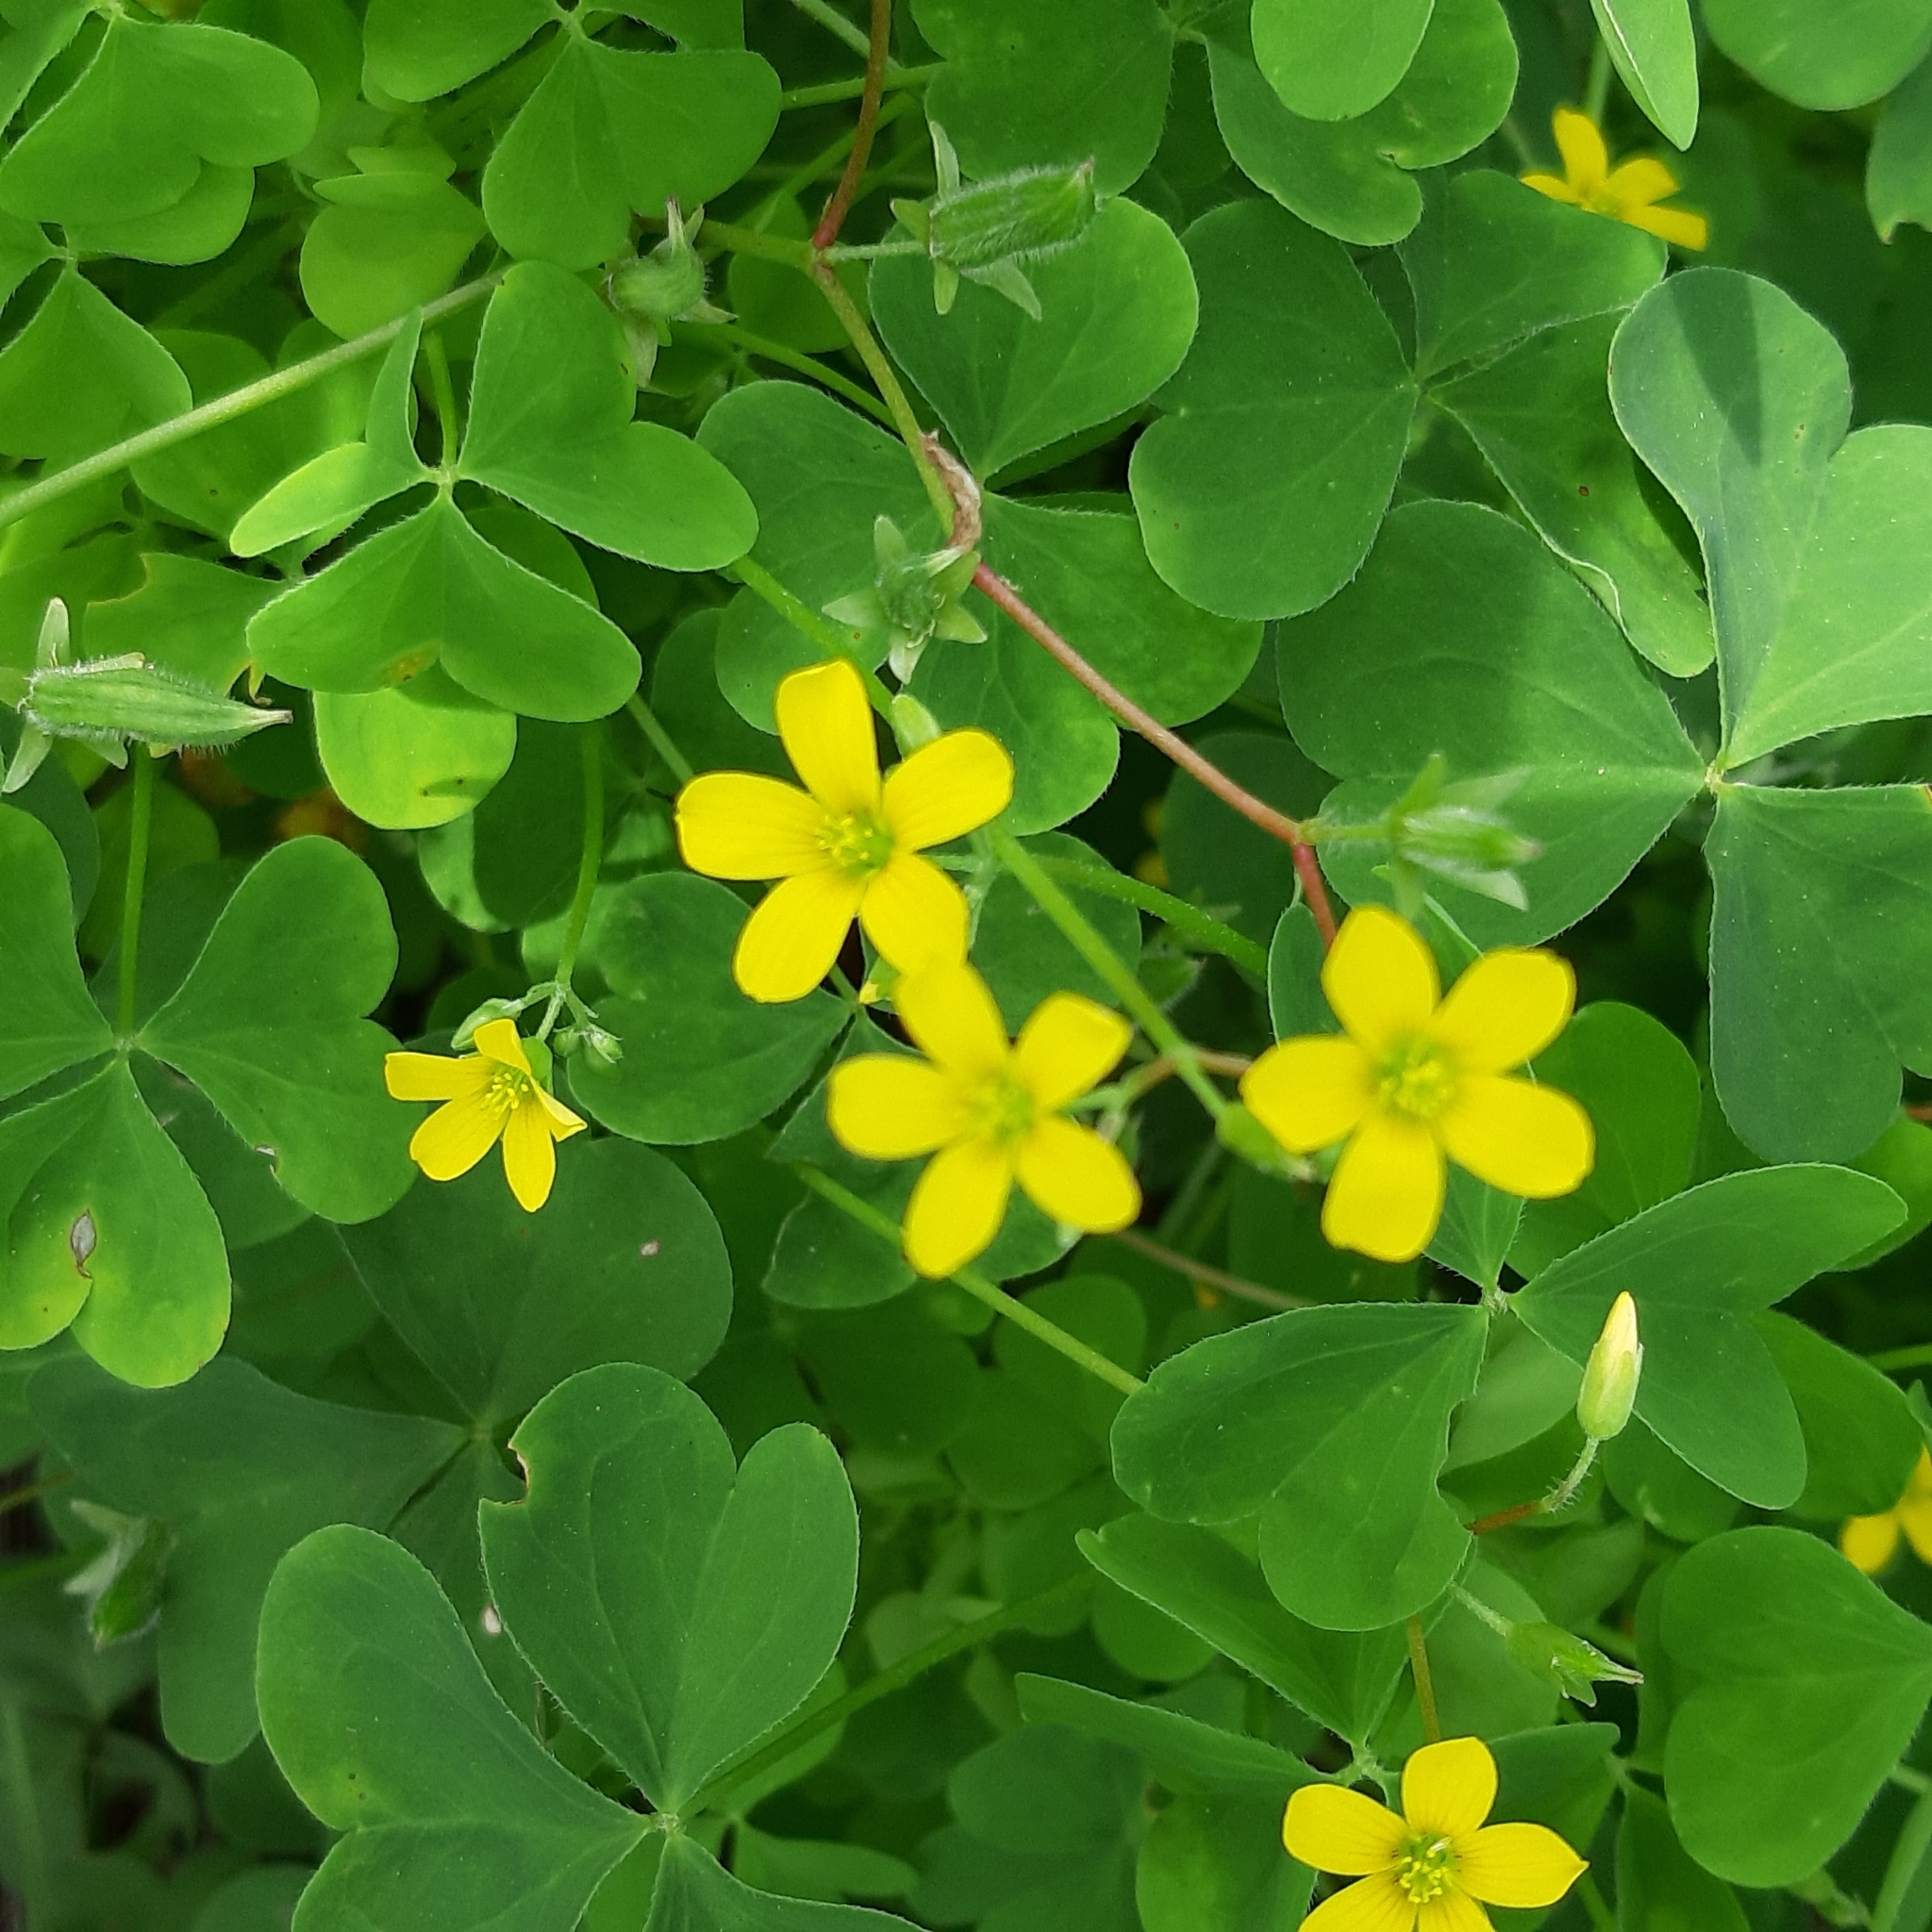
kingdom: Plantae
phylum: Tracheophyta
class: Magnoliopsida
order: Oxalidales
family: Oxalidaceae
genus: Oxalis
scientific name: Oxalis stricta
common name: Upright yellow-sorrel
